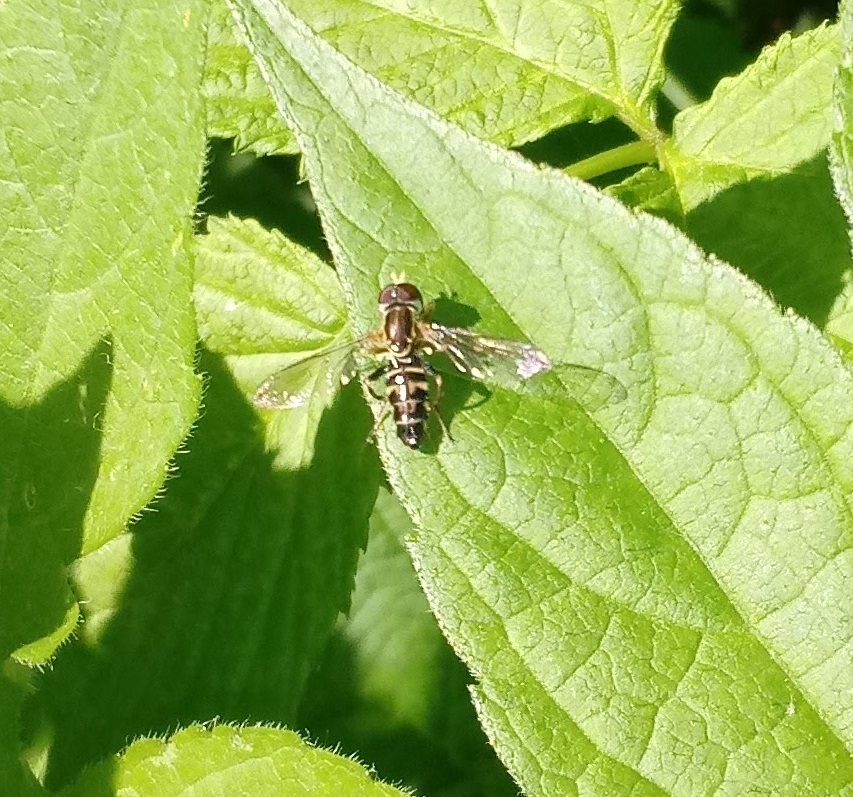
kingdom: Animalia
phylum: Arthropoda
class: Insecta
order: Diptera
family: Syrphidae
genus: Toxomerus
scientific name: Toxomerus geminatus
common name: Eastern calligrapher
